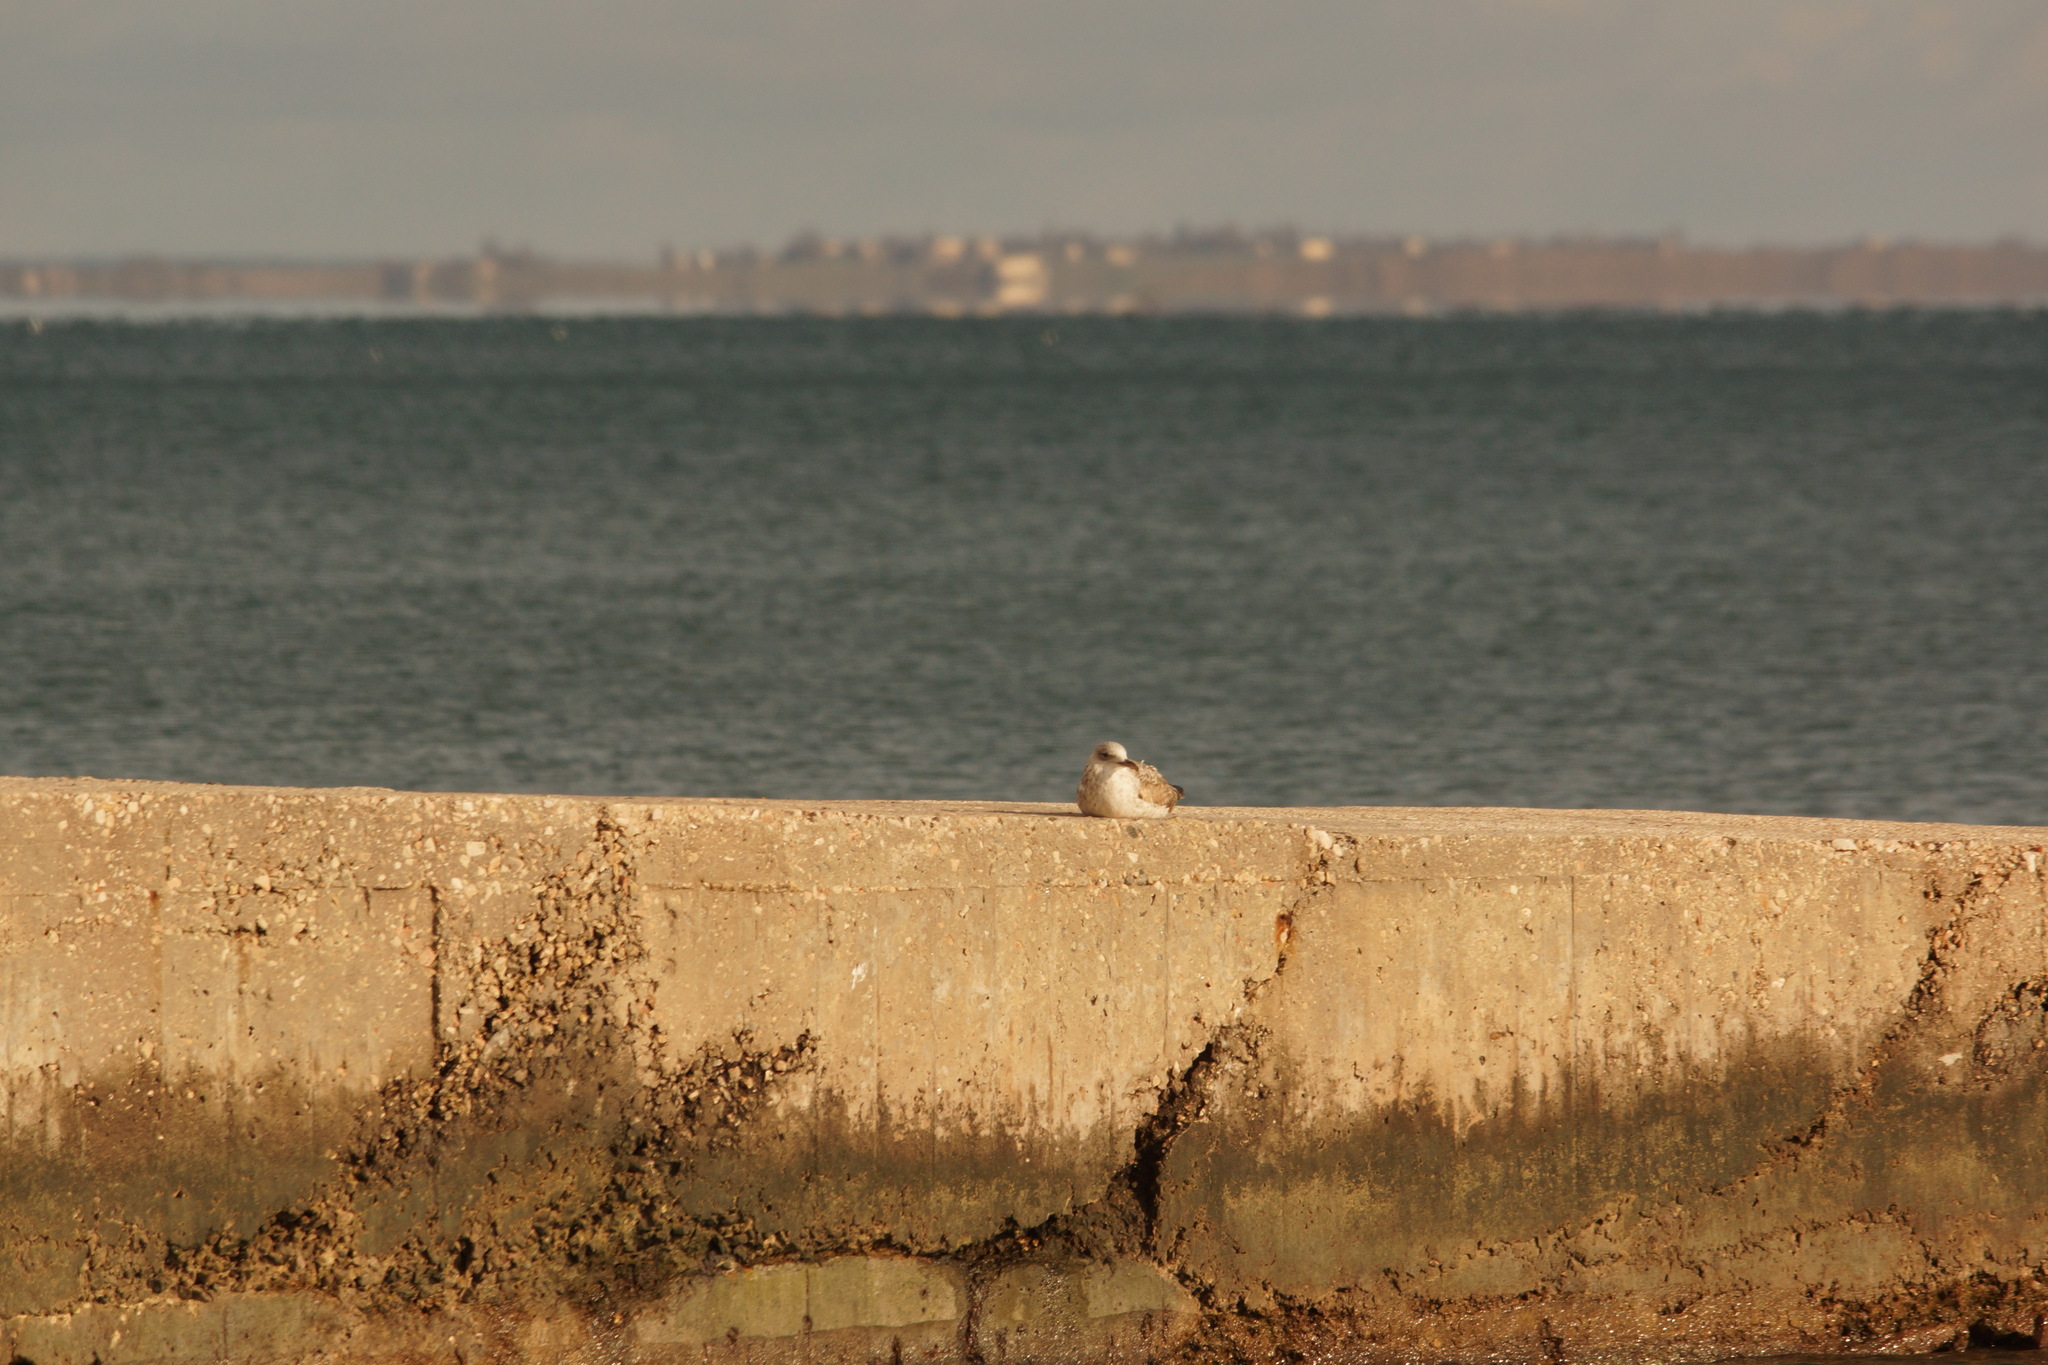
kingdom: Animalia
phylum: Chordata
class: Aves
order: Charadriiformes
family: Laridae
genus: Larus
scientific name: Larus michahellis
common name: Yellow-legged gull
